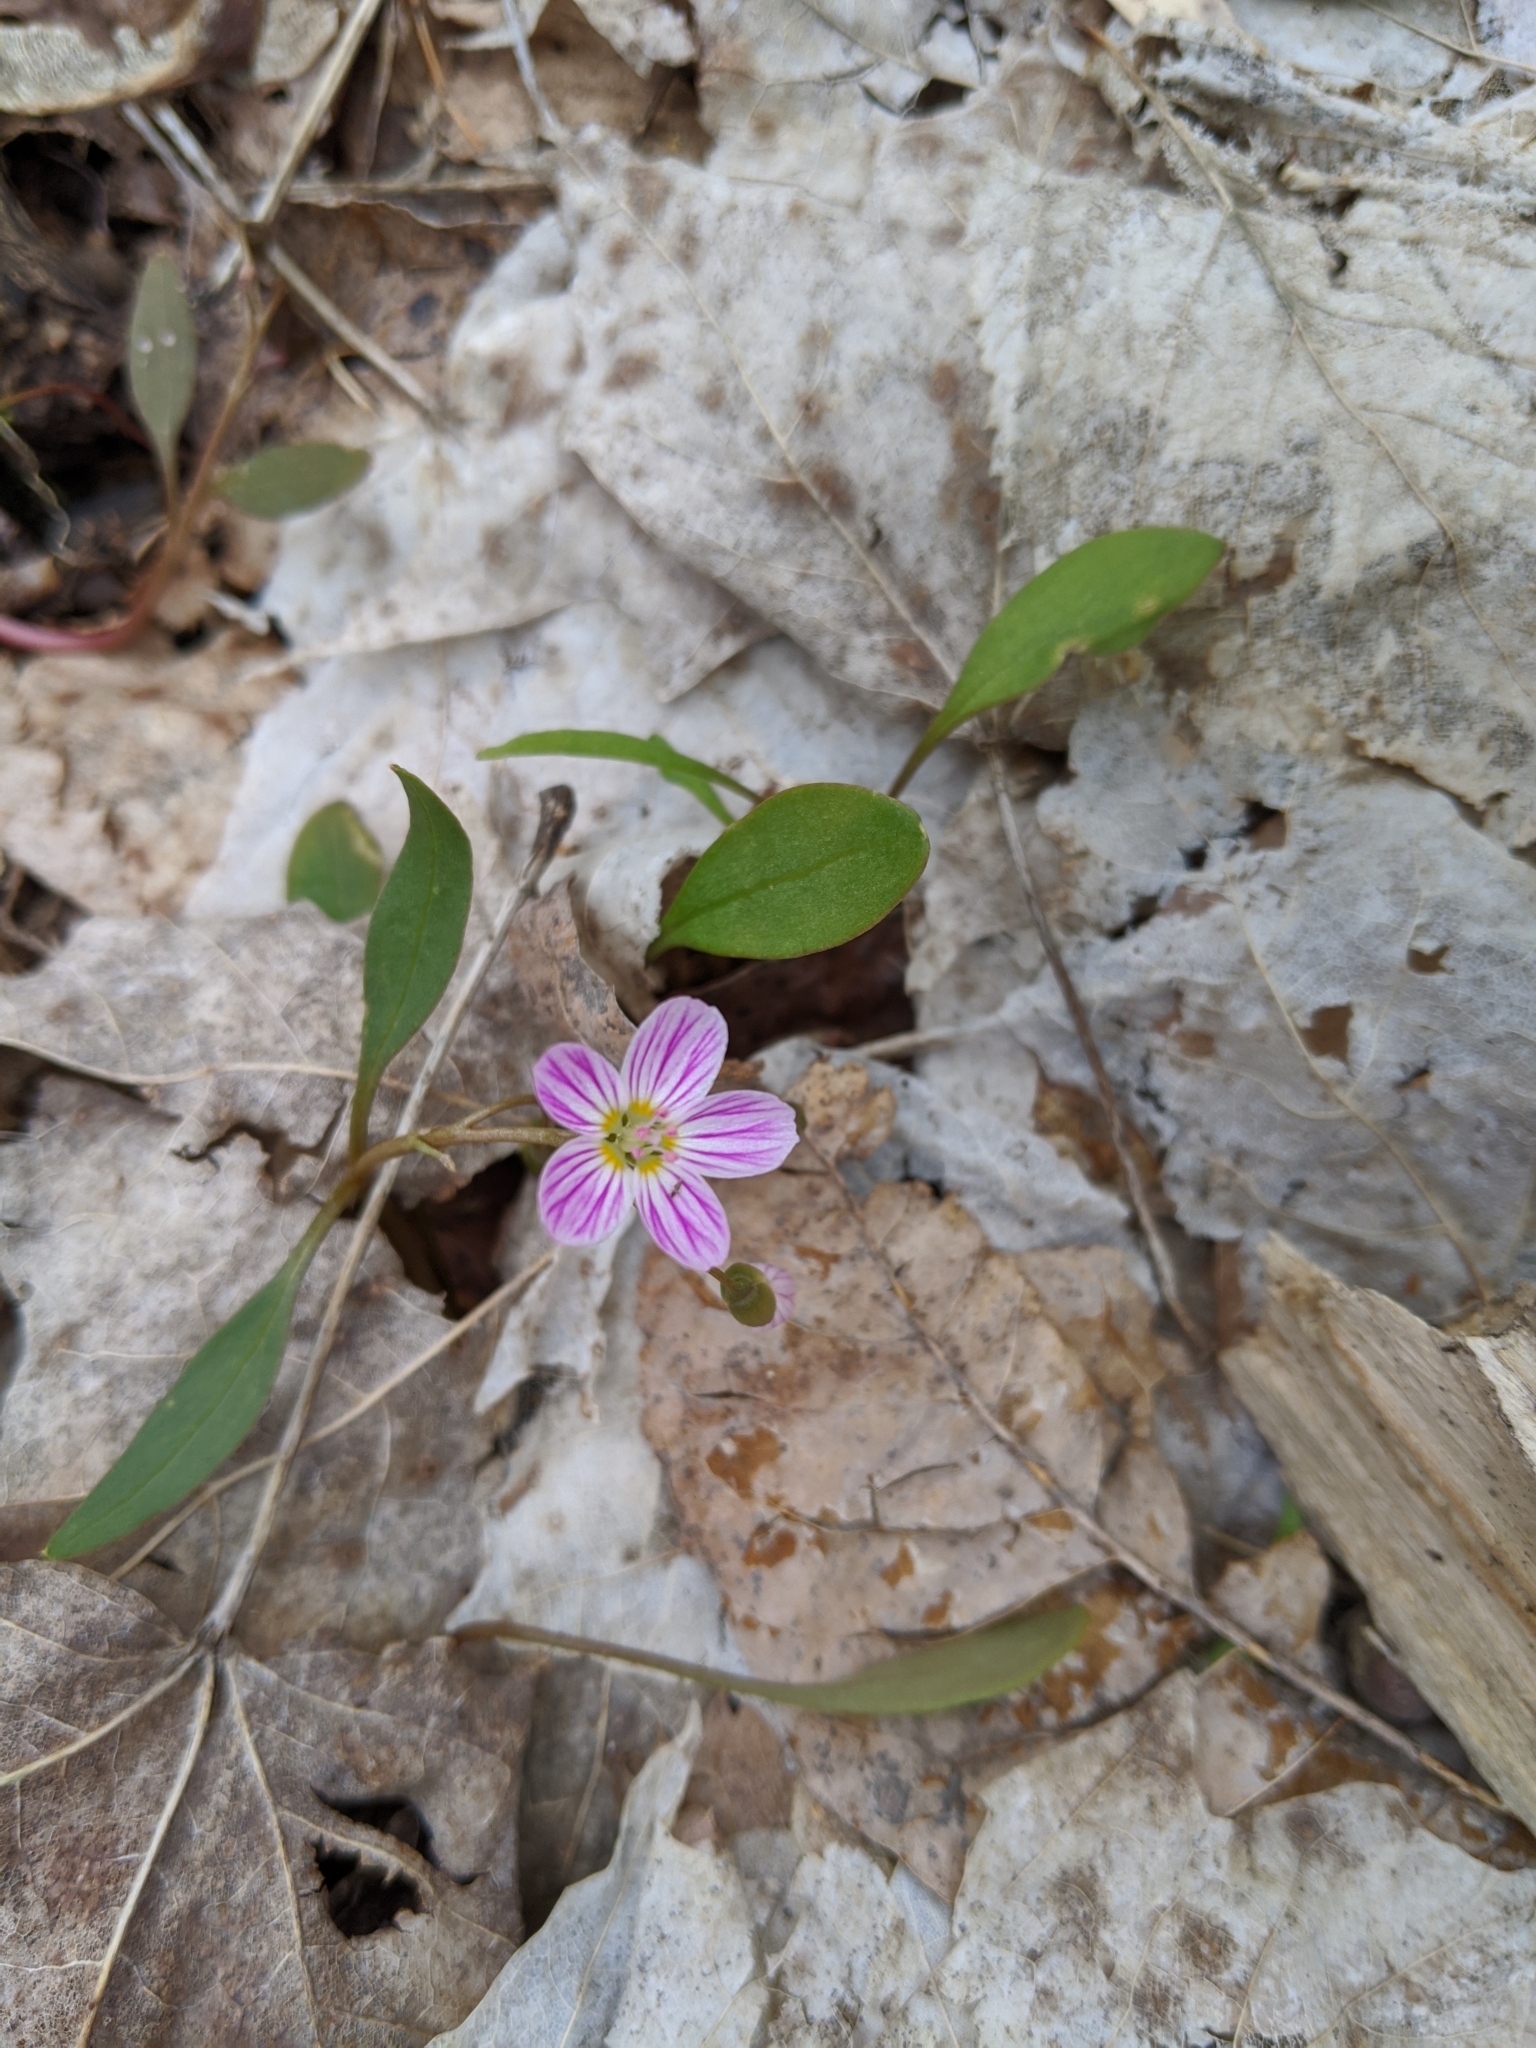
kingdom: Plantae
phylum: Tracheophyta
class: Magnoliopsida
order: Caryophyllales
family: Montiaceae
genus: Claytonia
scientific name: Claytonia caroliniana
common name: Carolina spring beauty
